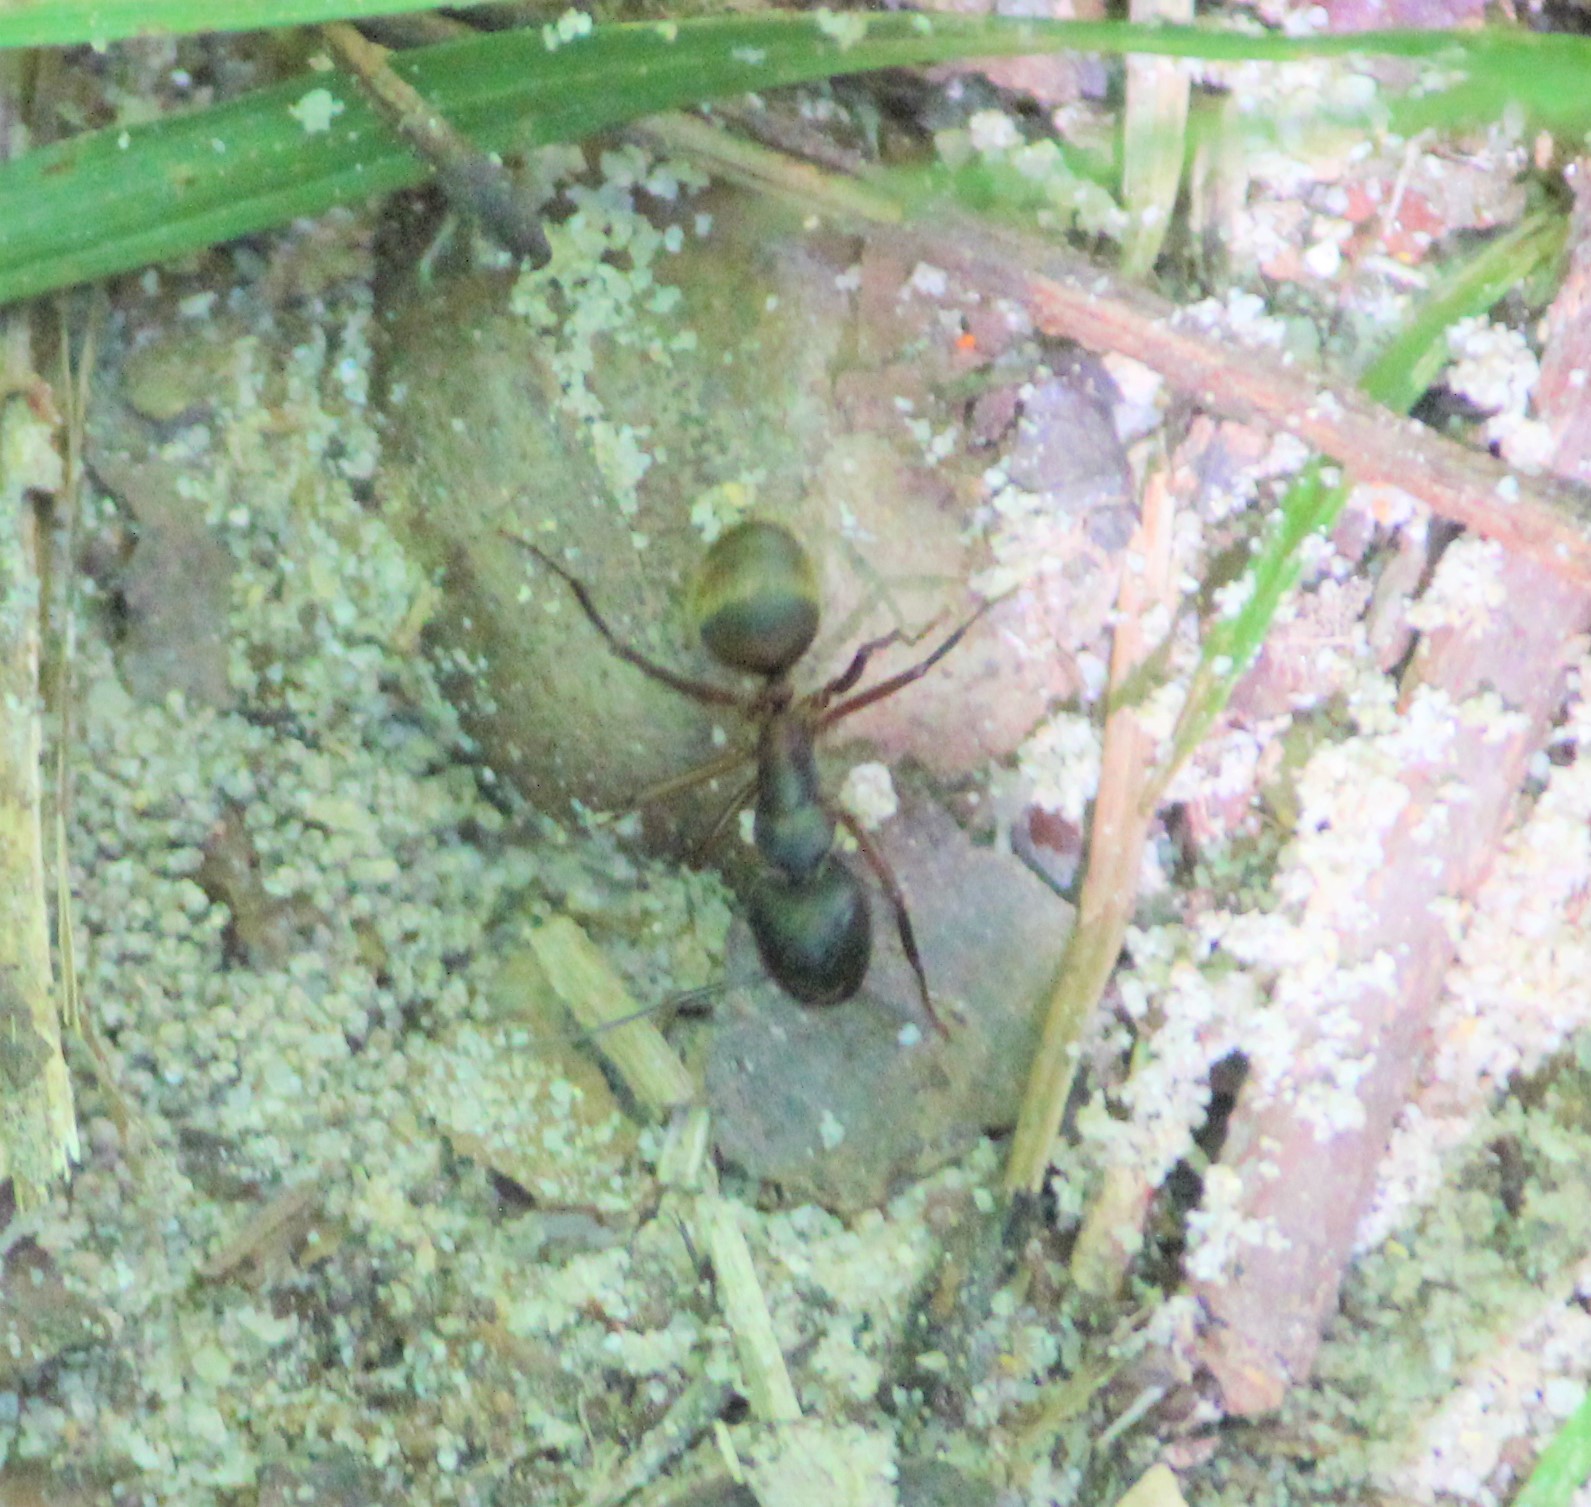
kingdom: Animalia
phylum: Arthropoda
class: Insecta
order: Hymenoptera
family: Formicidae
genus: Camponotus
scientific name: Camponotus chromaiodes
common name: Red carpenter ant
